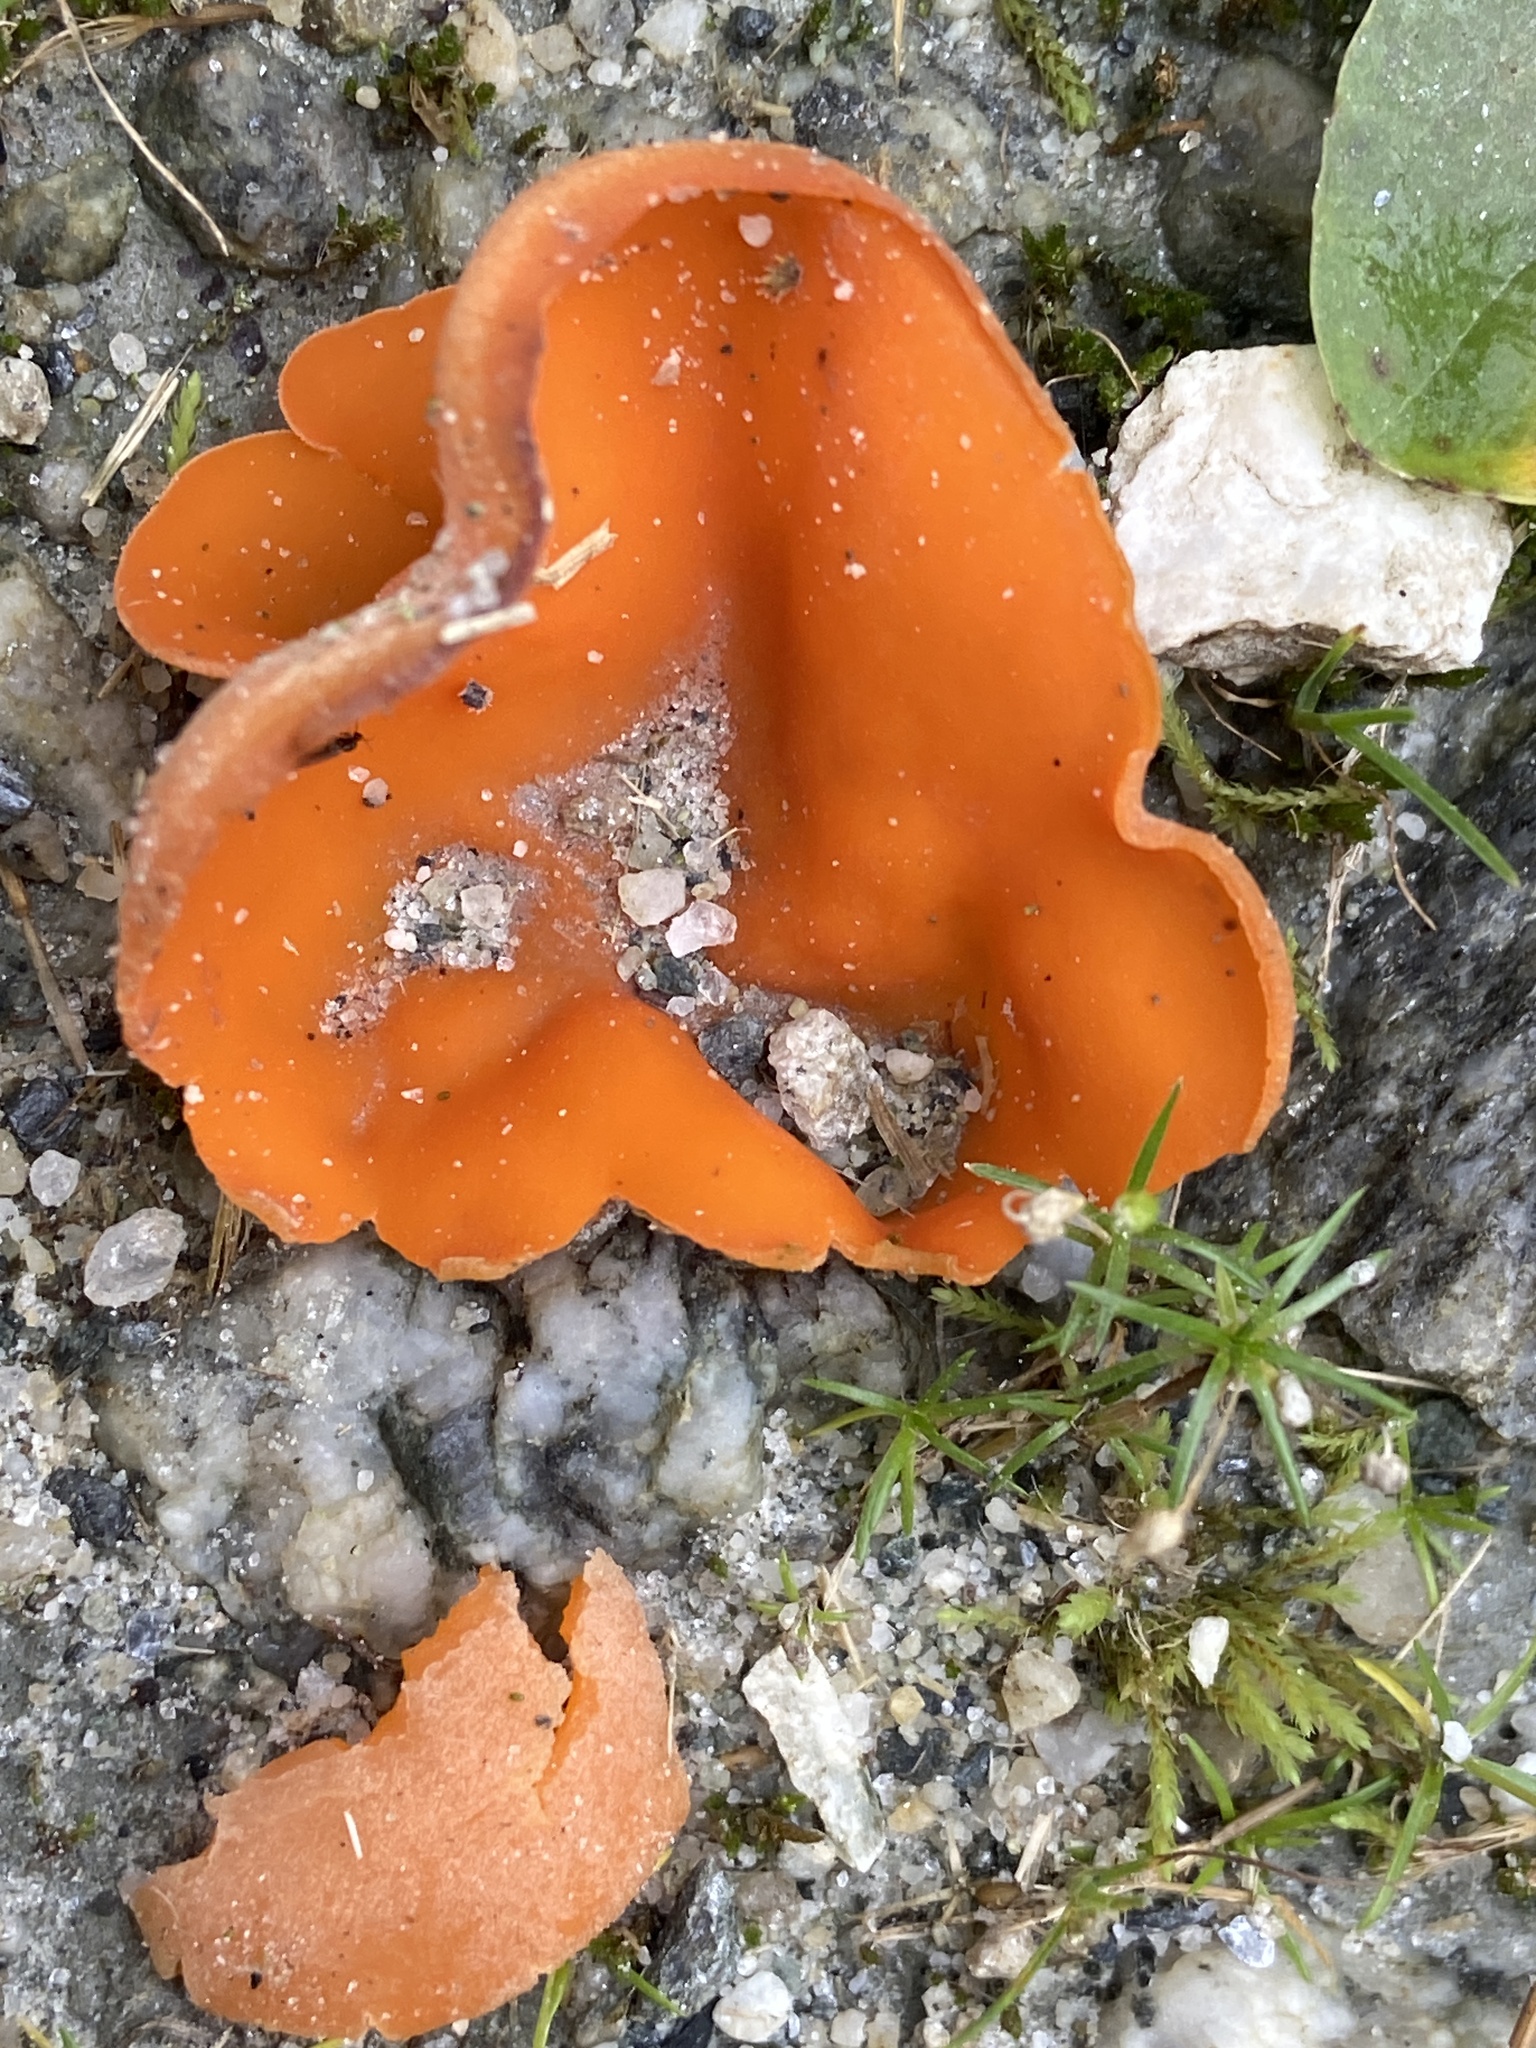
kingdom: Fungi
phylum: Ascomycota
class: Pezizomycetes
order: Pezizales
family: Pyronemataceae
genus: Aleuria
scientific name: Aleuria aurantia
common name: Orange peel fungus
